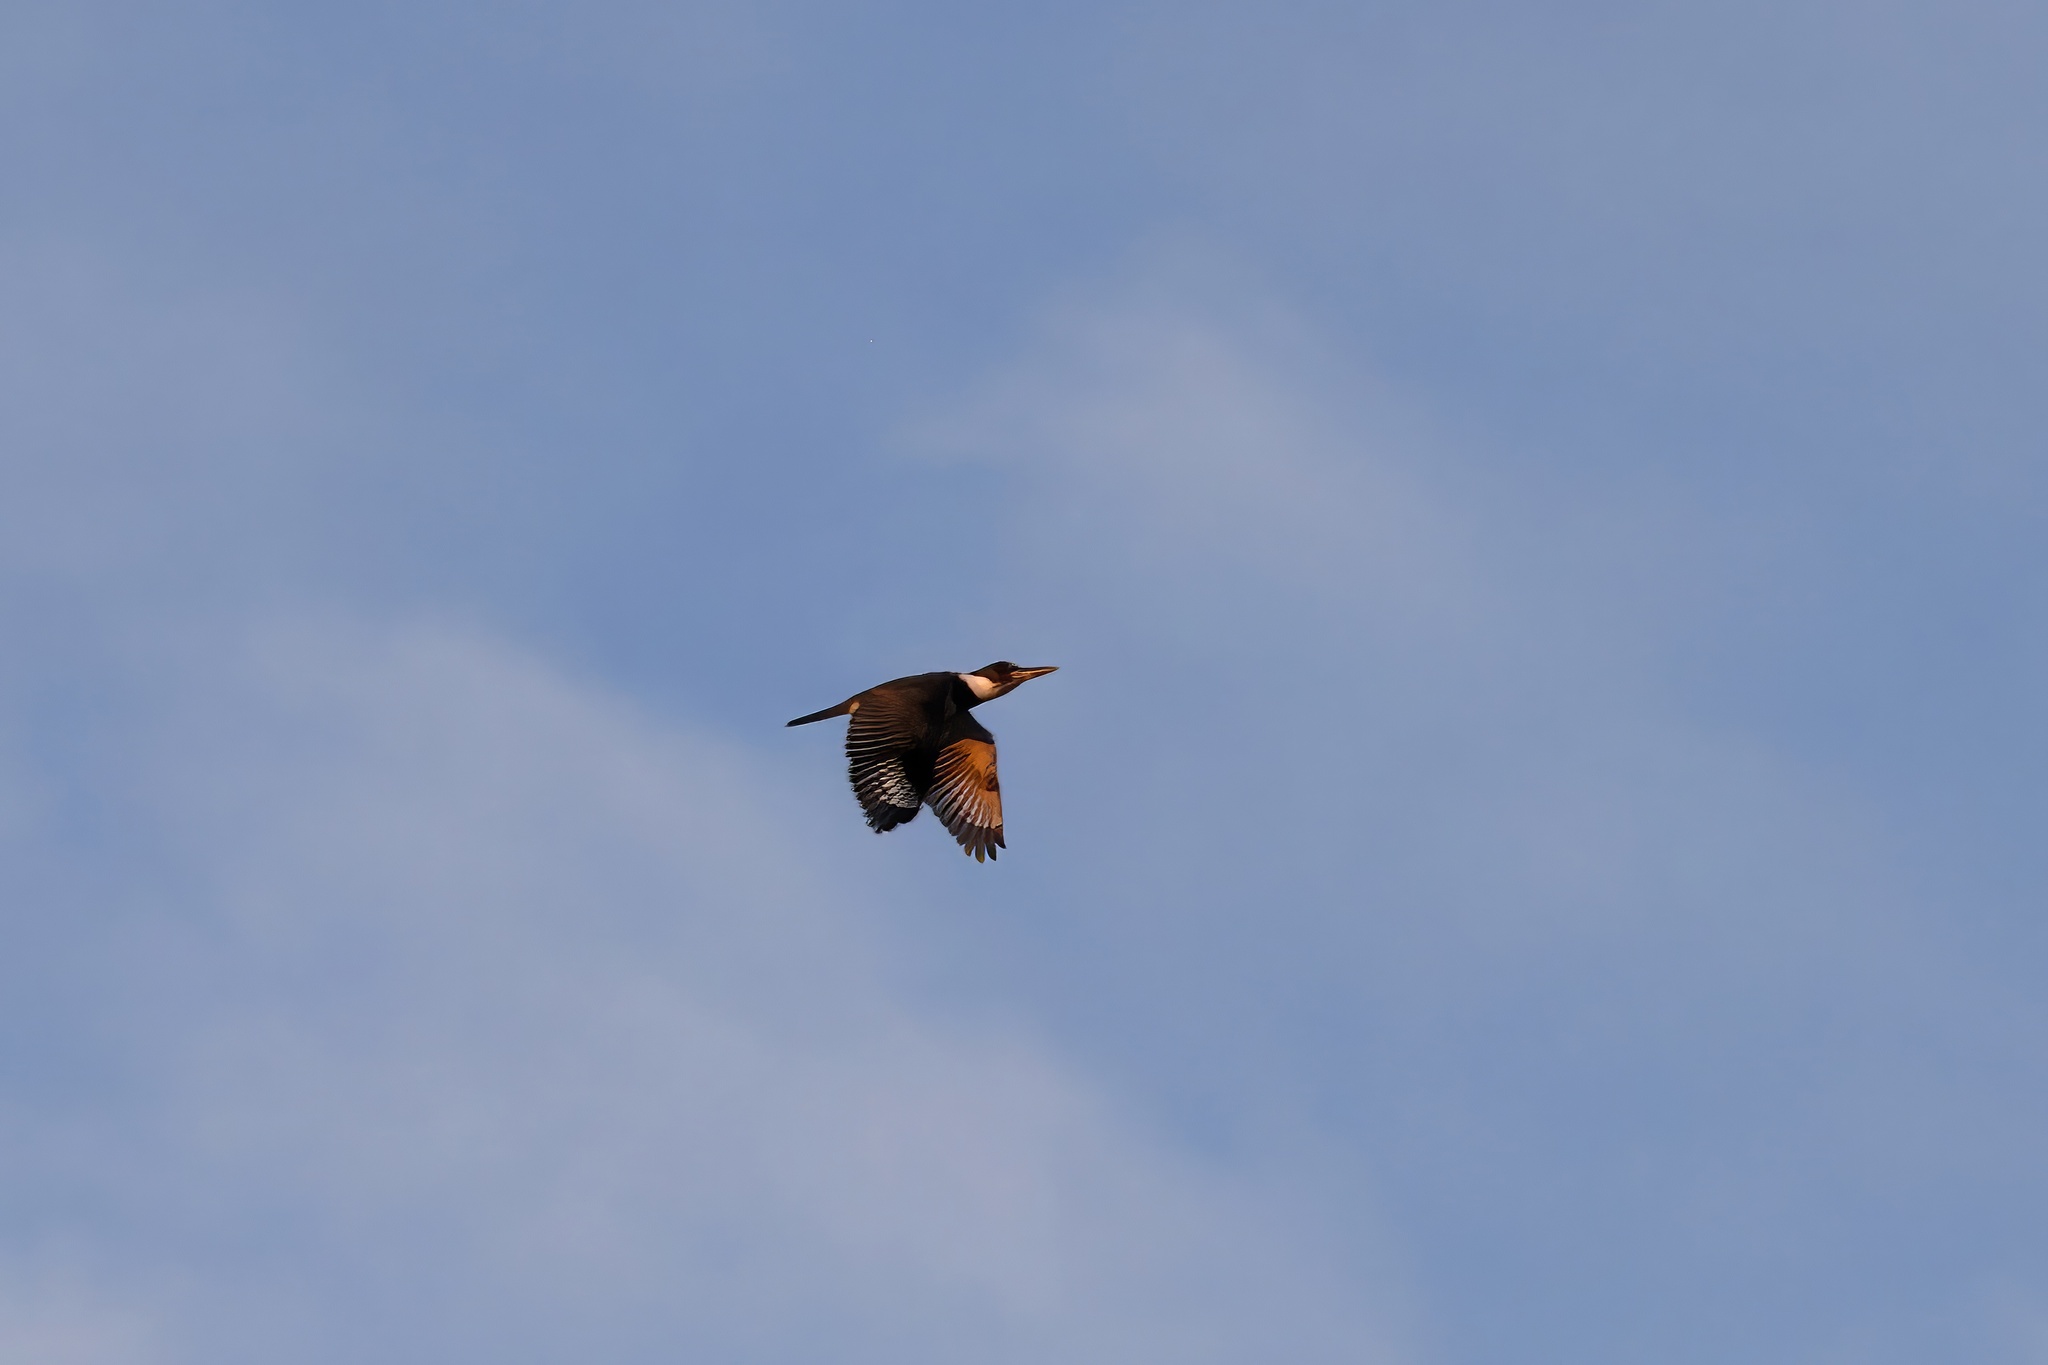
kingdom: Animalia
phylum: Chordata
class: Aves
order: Coraciiformes
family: Alcedinidae
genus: Megaceryle
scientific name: Megaceryle alcyon
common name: Belted kingfisher
